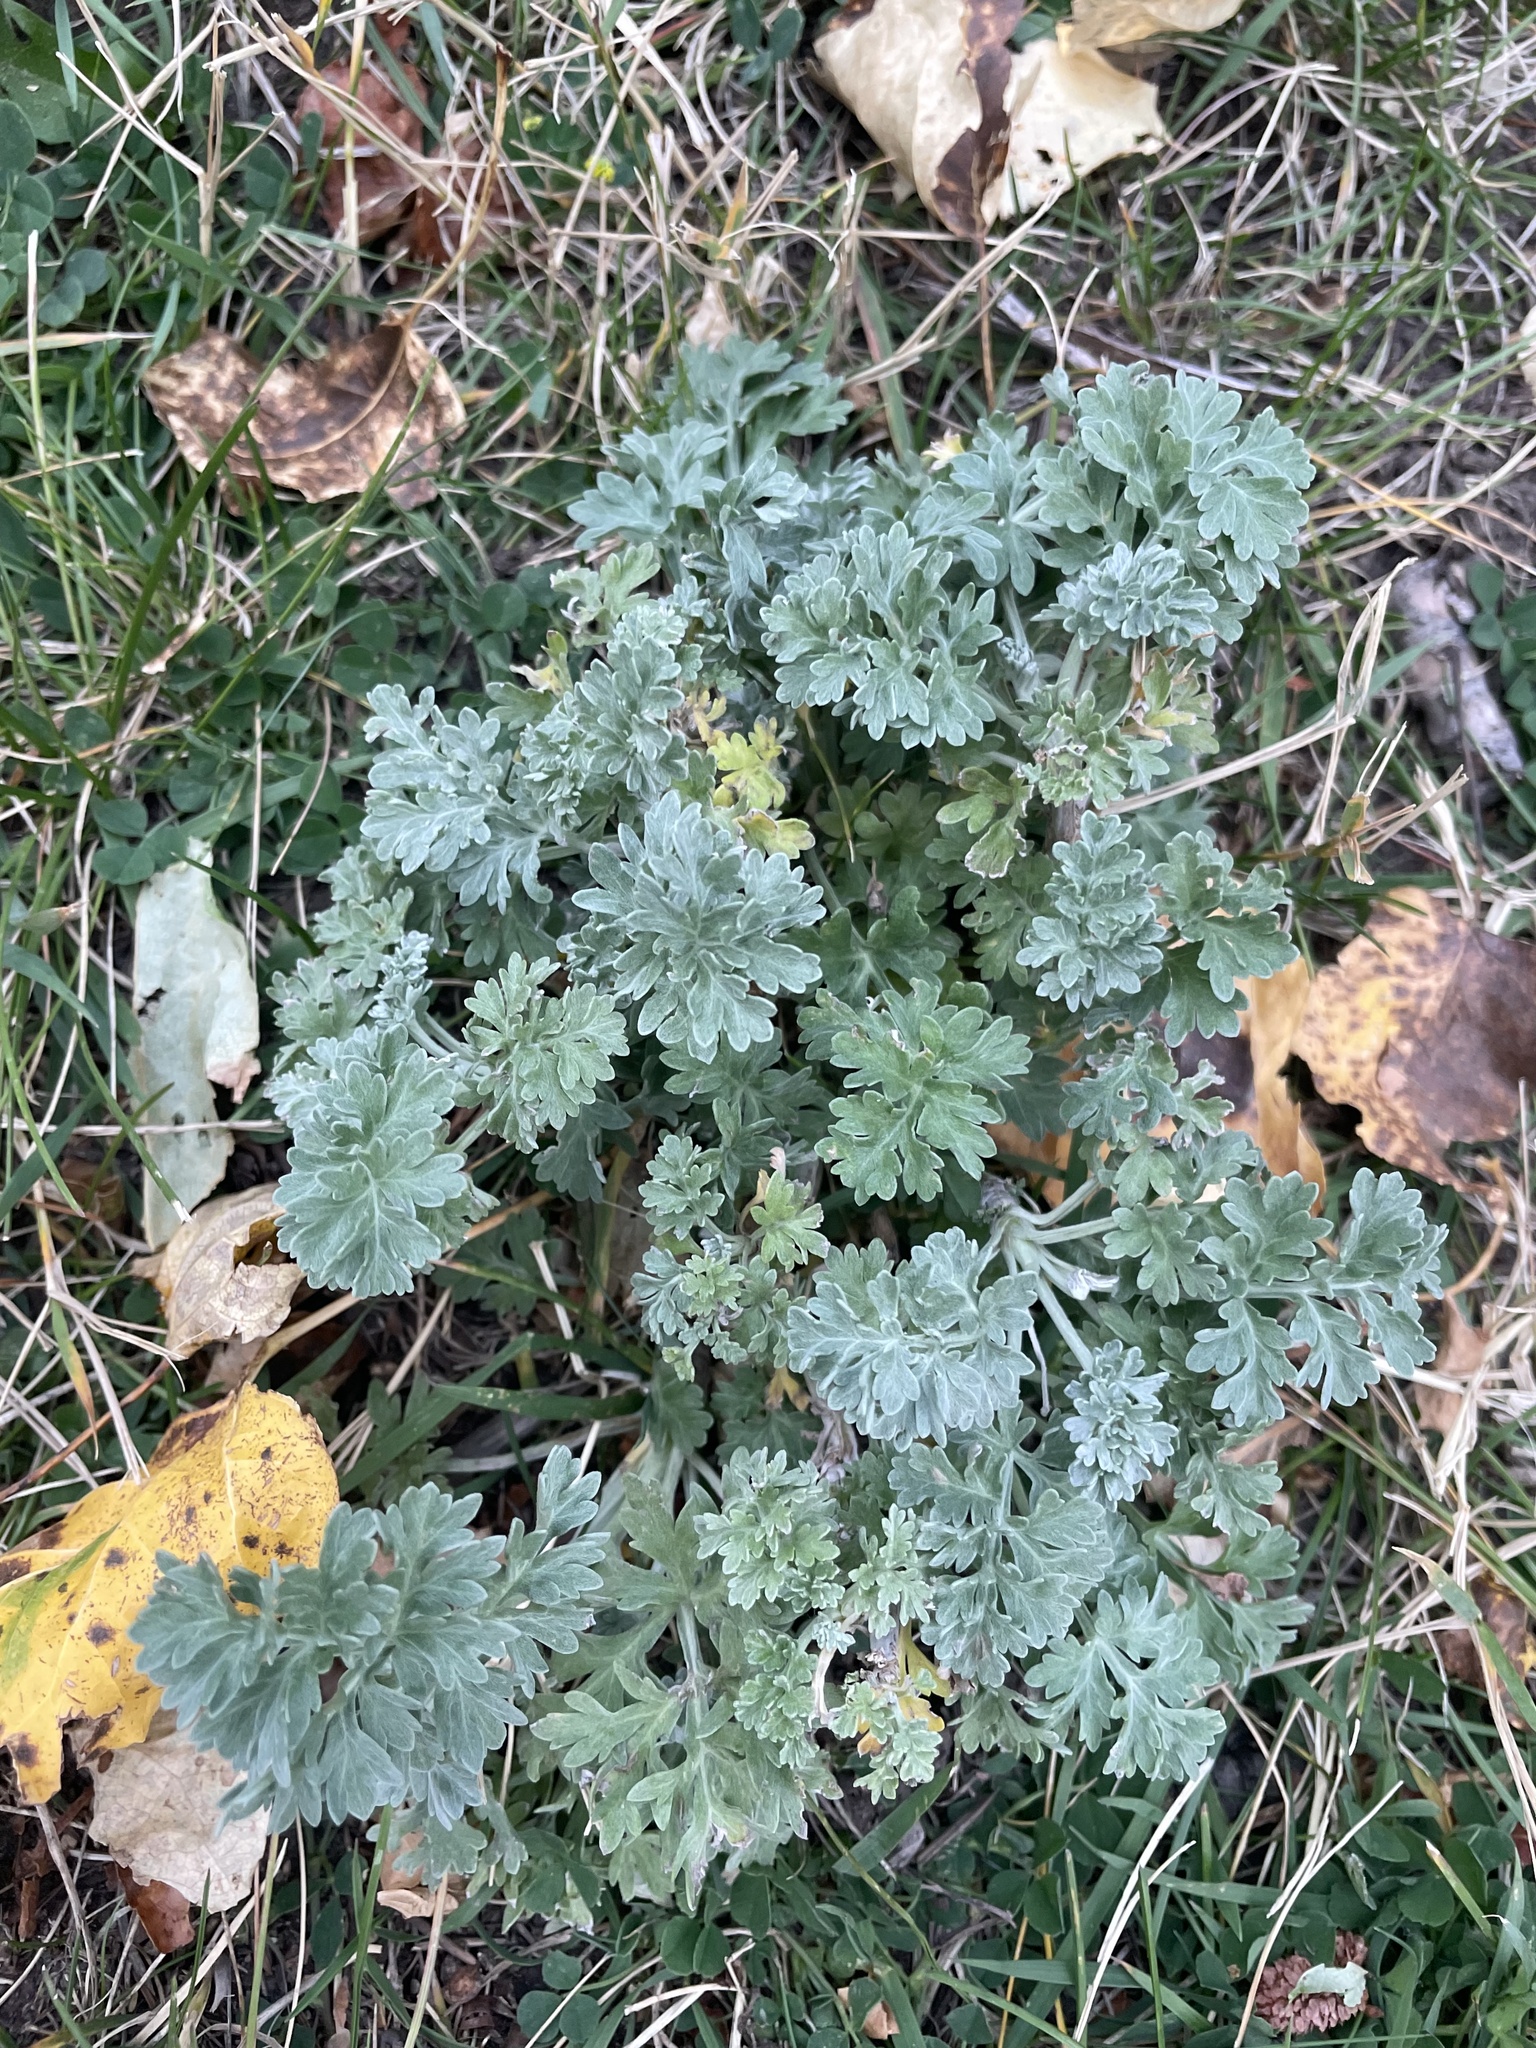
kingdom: Plantae
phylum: Tracheophyta
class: Magnoliopsida
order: Asterales
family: Asteraceae
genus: Artemisia
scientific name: Artemisia absinthium
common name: Wormwood
